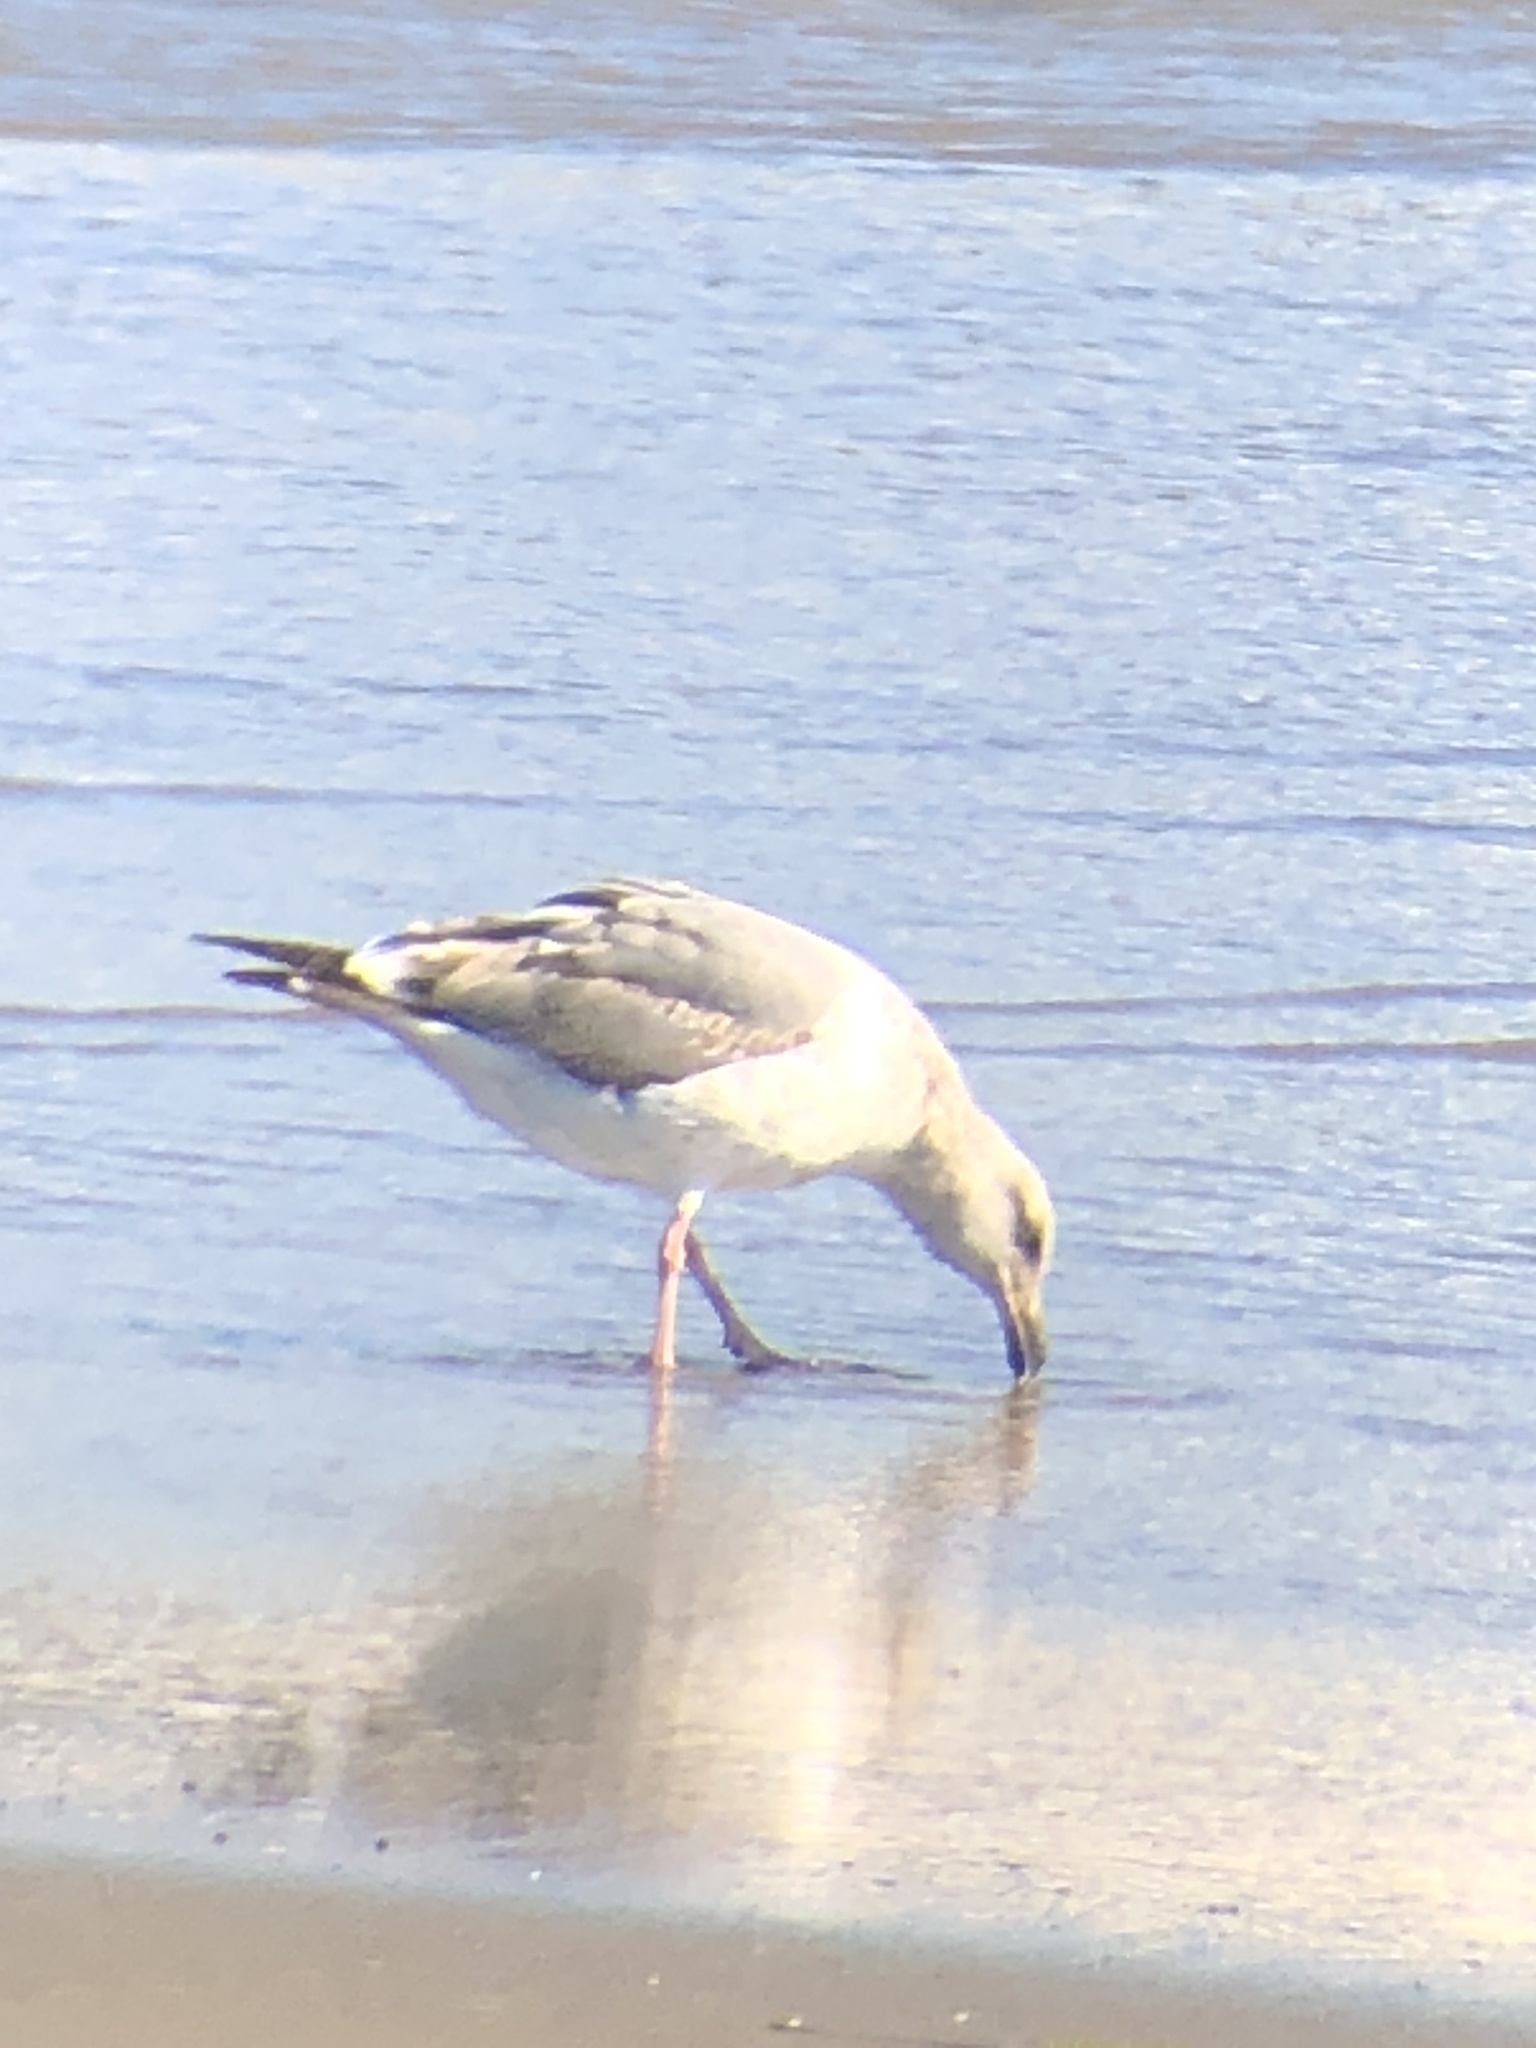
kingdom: Animalia
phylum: Chordata
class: Aves
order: Charadriiformes
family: Laridae
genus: Larus
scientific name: Larus occidentalis
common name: Western gull
